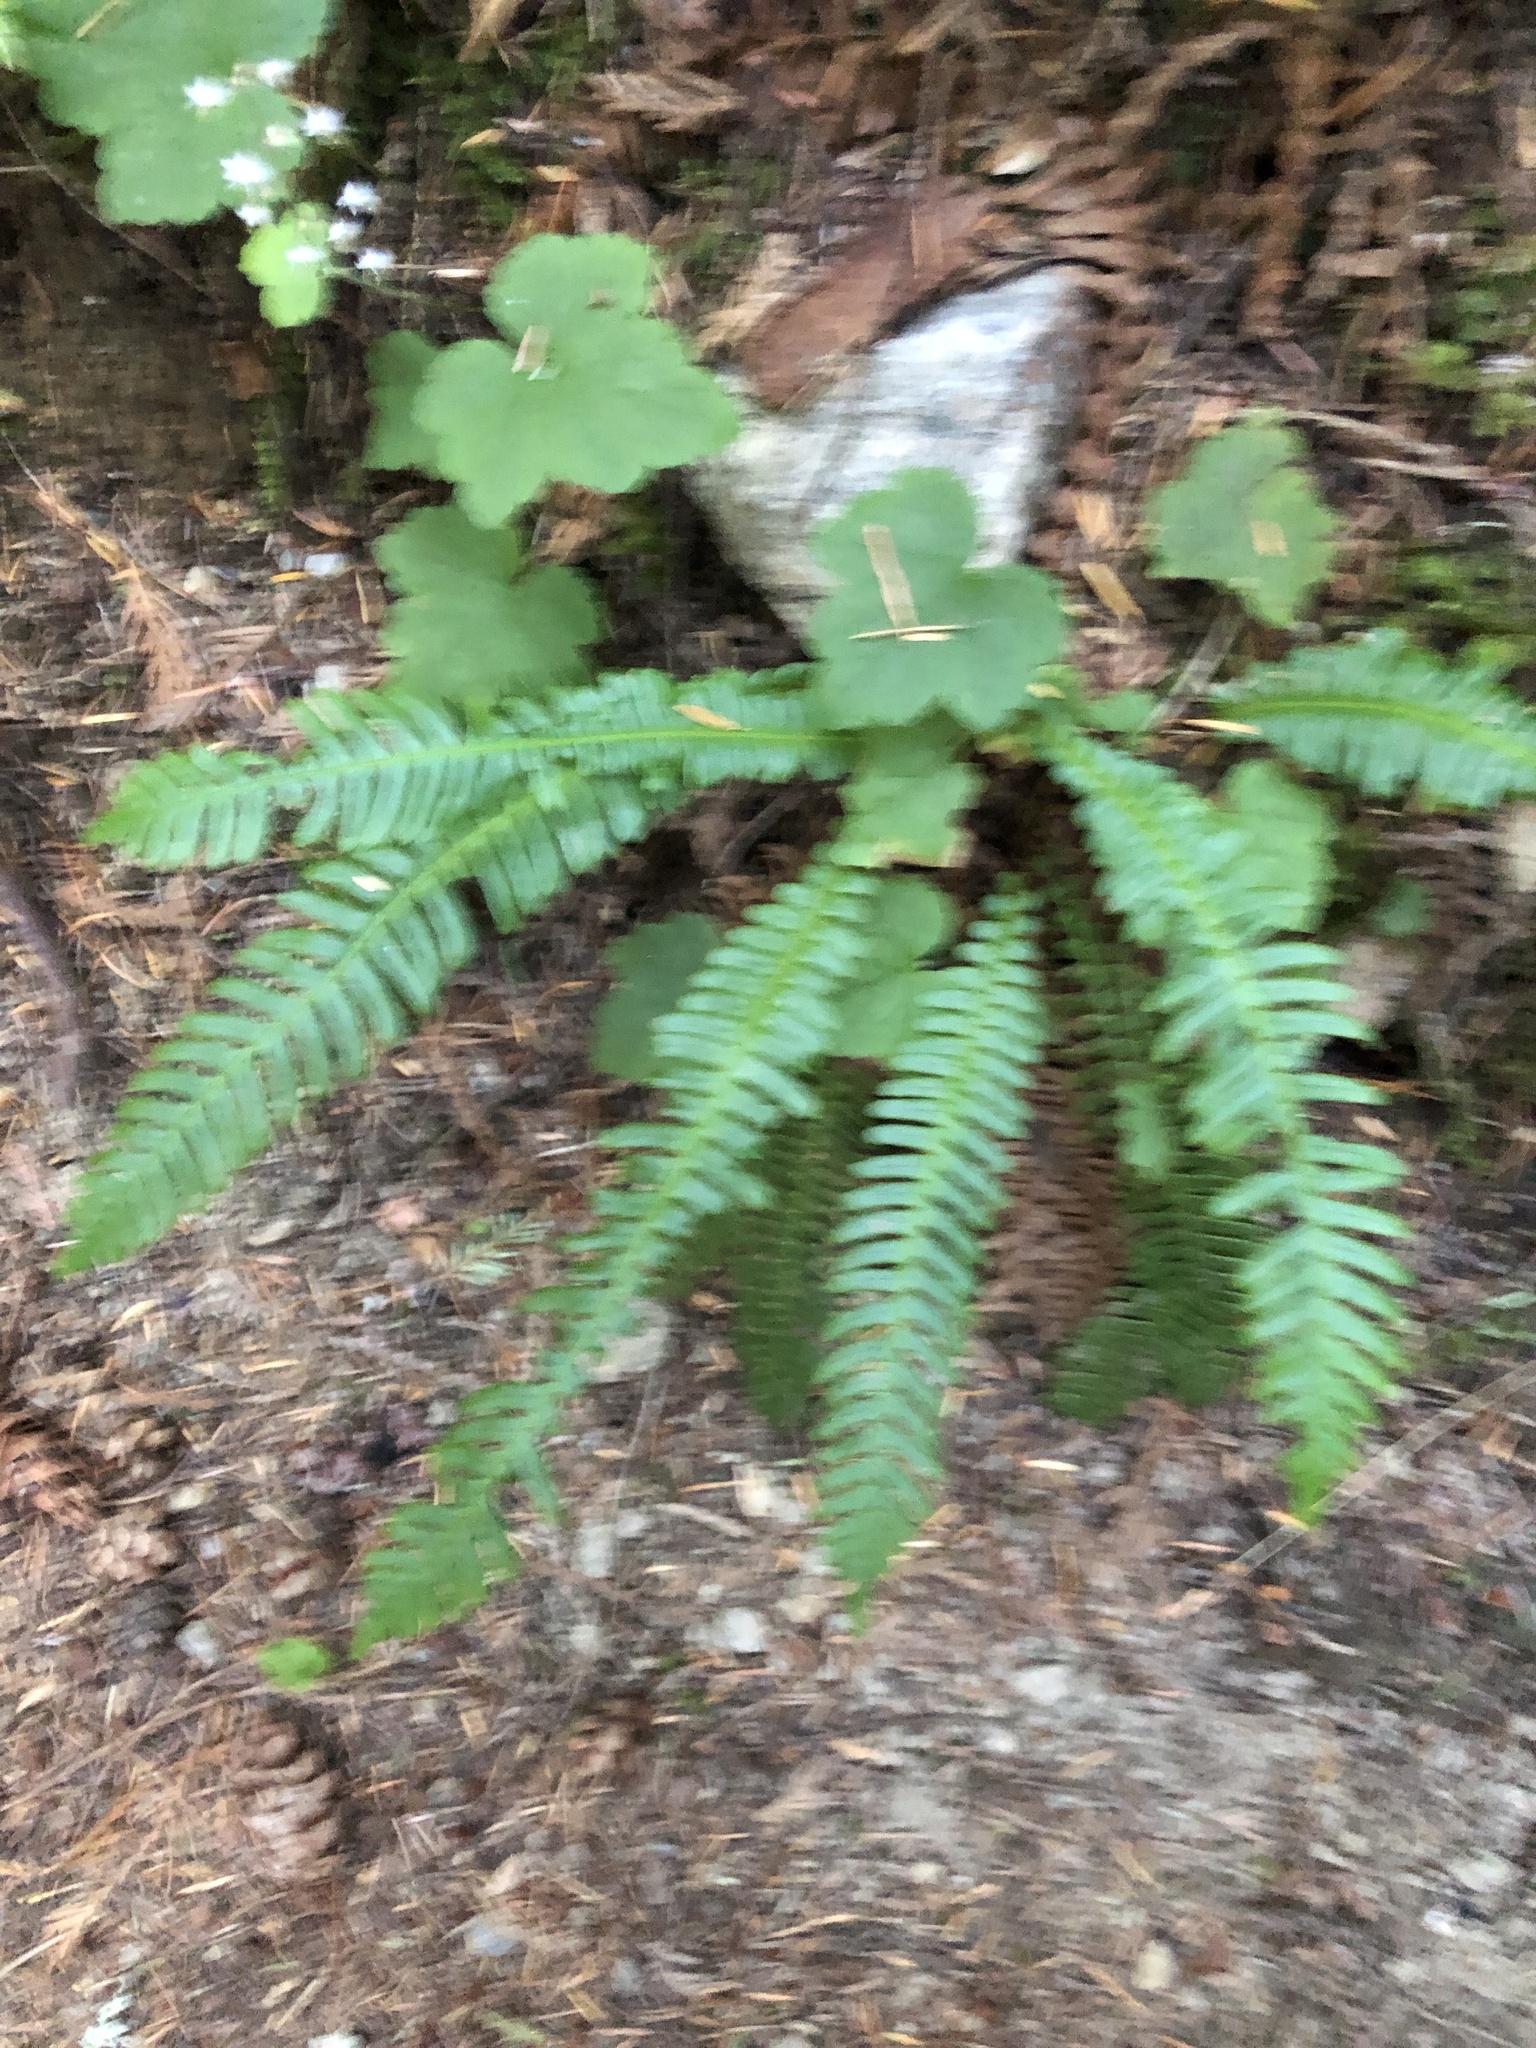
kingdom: Plantae
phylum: Tracheophyta
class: Polypodiopsida
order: Polypodiales
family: Blechnaceae
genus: Struthiopteris
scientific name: Struthiopteris spicant
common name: Deer fern
